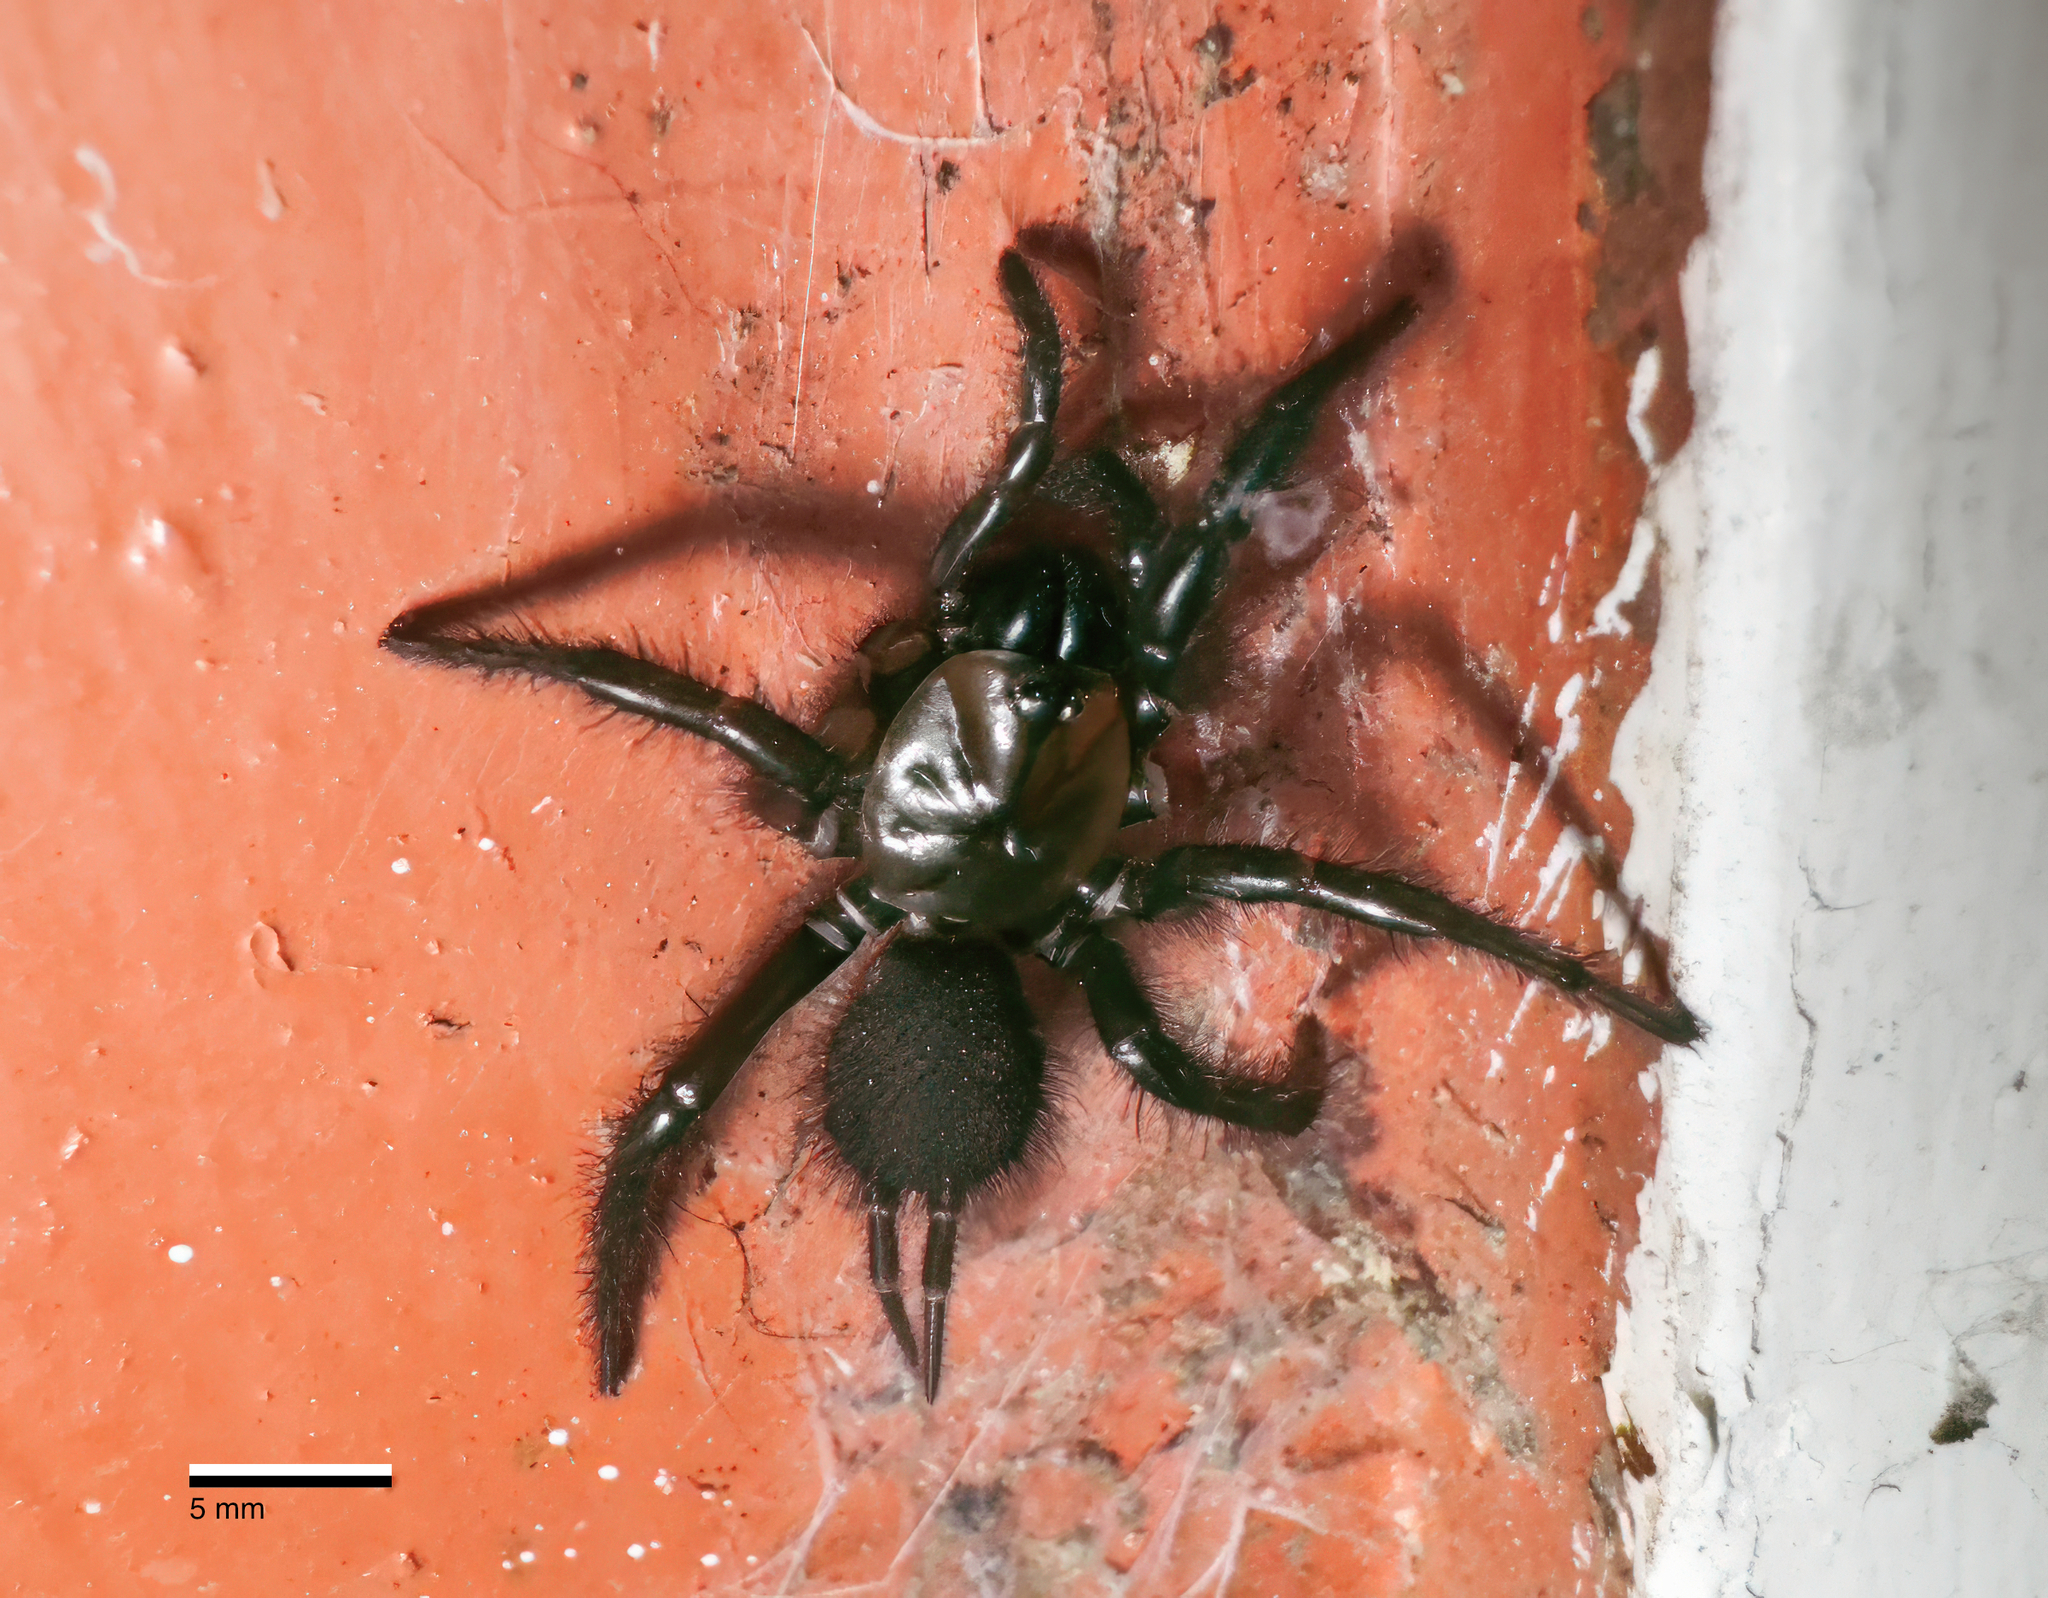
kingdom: Animalia
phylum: Arthropoda
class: Arachnida
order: Araneae
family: Porrhothelidae
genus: Porrhothele
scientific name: Porrhothele antipodiana
